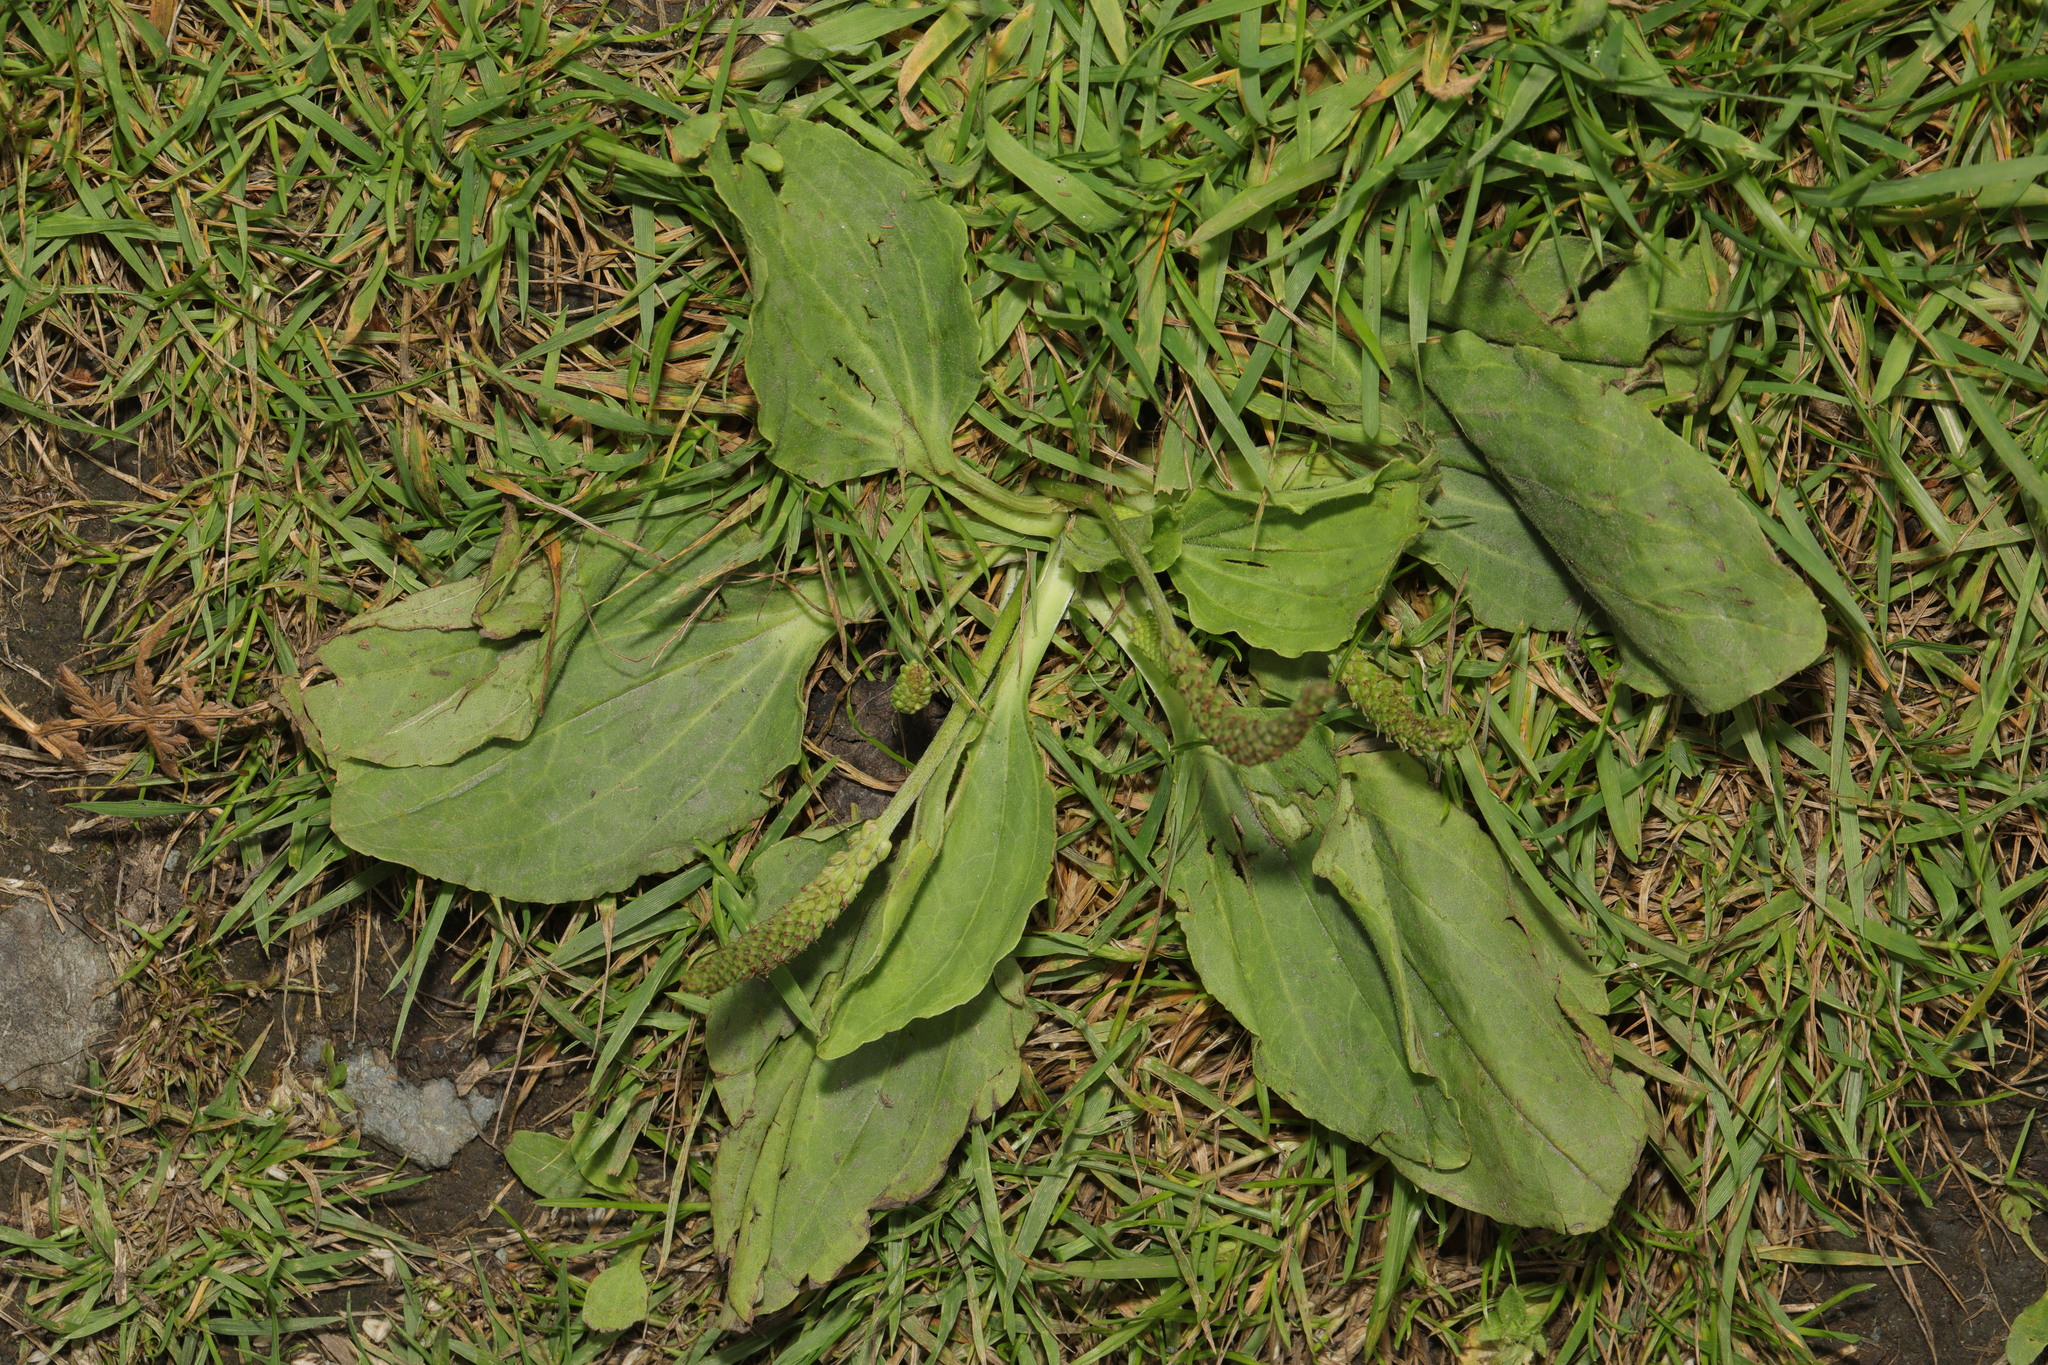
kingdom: Plantae
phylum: Tracheophyta
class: Magnoliopsida
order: Lamiales
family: Plantaginaceae
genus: Plantago
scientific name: Plantago major
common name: Common plantain
